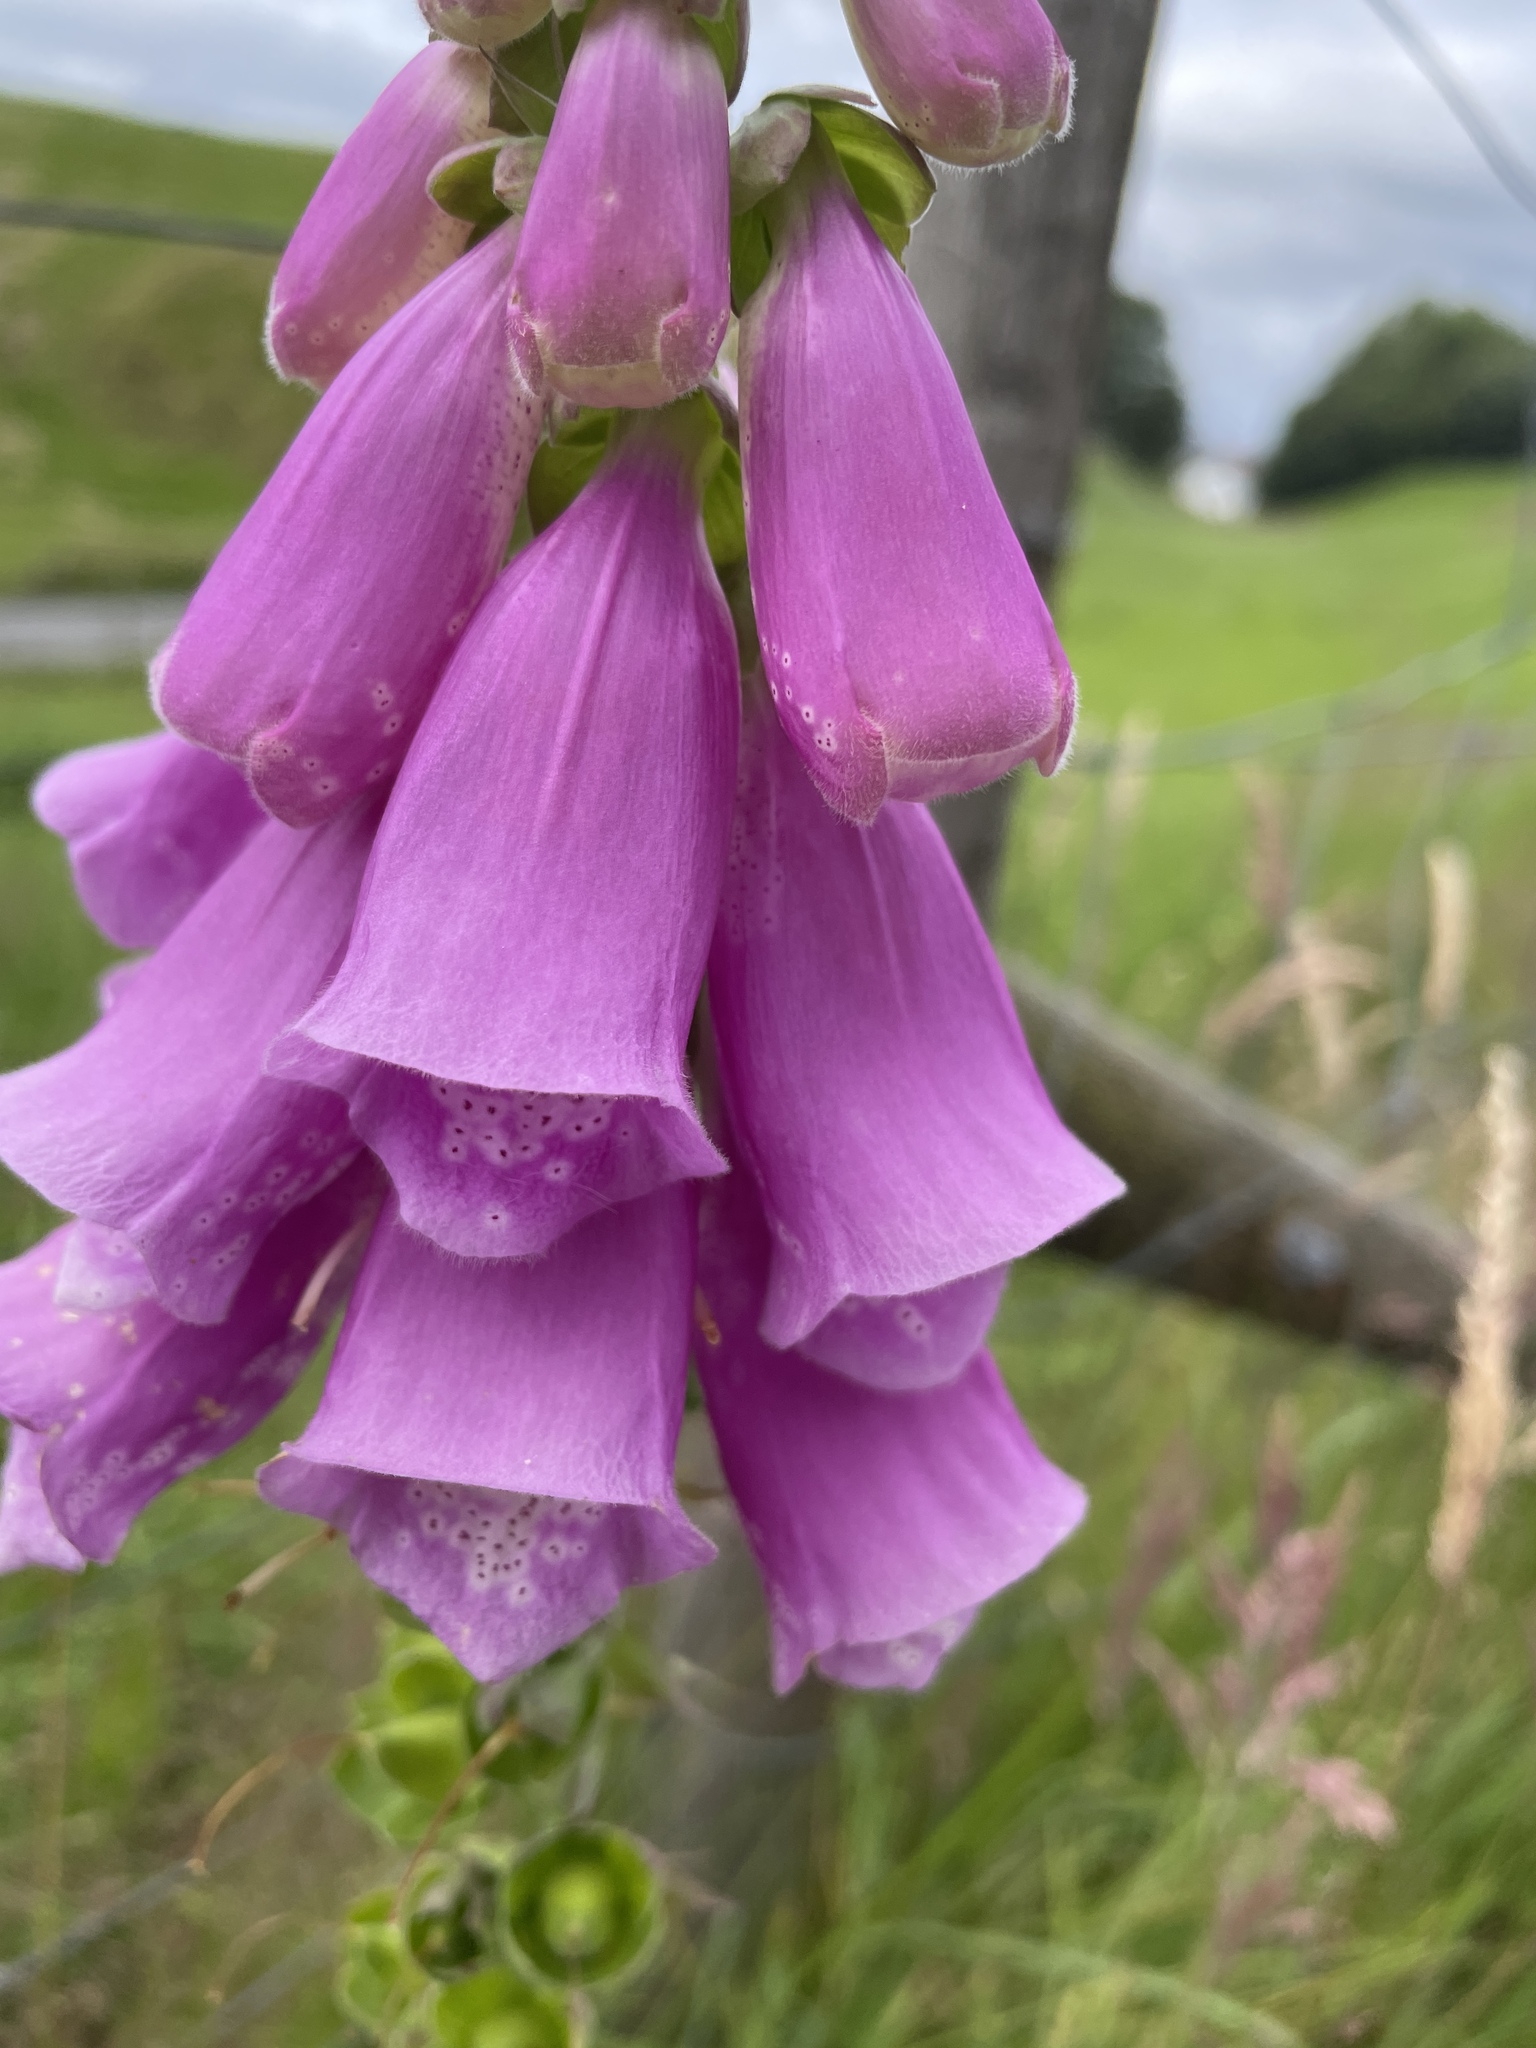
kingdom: Plantae
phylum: Tracheophyta
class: Magnoliopsida
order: Lamiales
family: Plantaginaceae
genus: Digitalis
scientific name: Digitalis purpurea
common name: Foxglove
